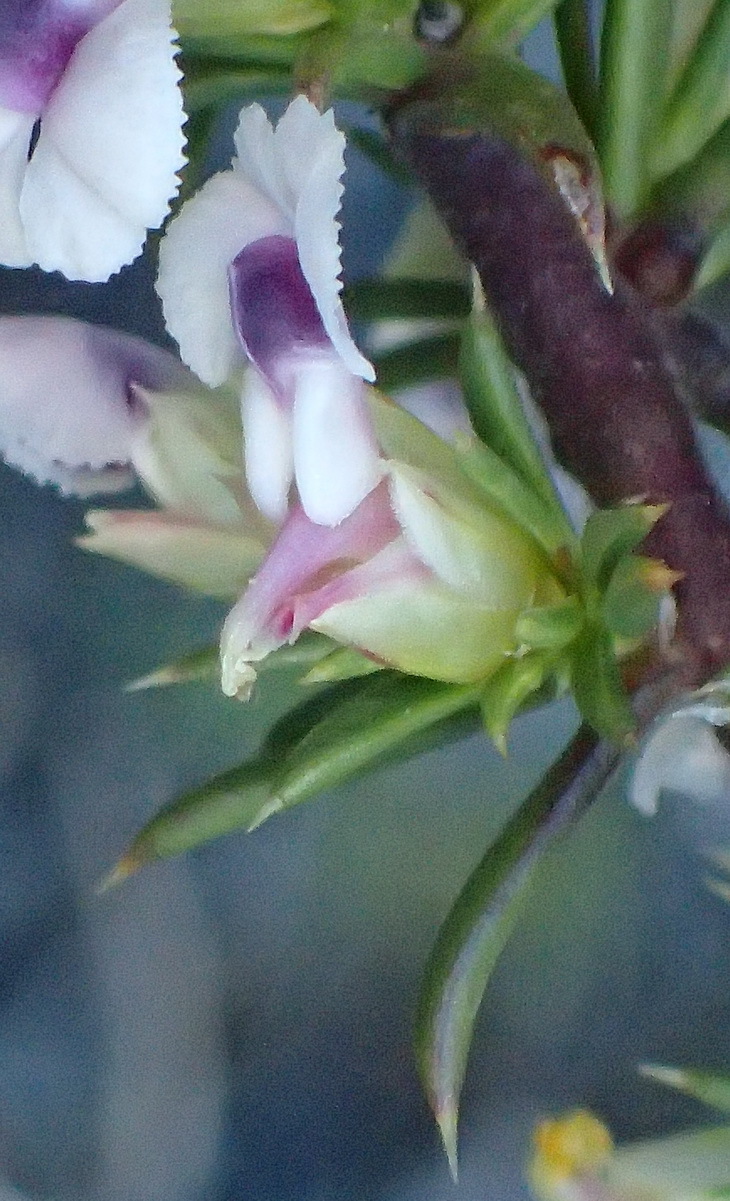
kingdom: Plantae
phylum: Tracheophyta
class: Magnoliopsida
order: Fabales
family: Polygalaceae
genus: Muraltia
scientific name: Muraltia ericifolia
